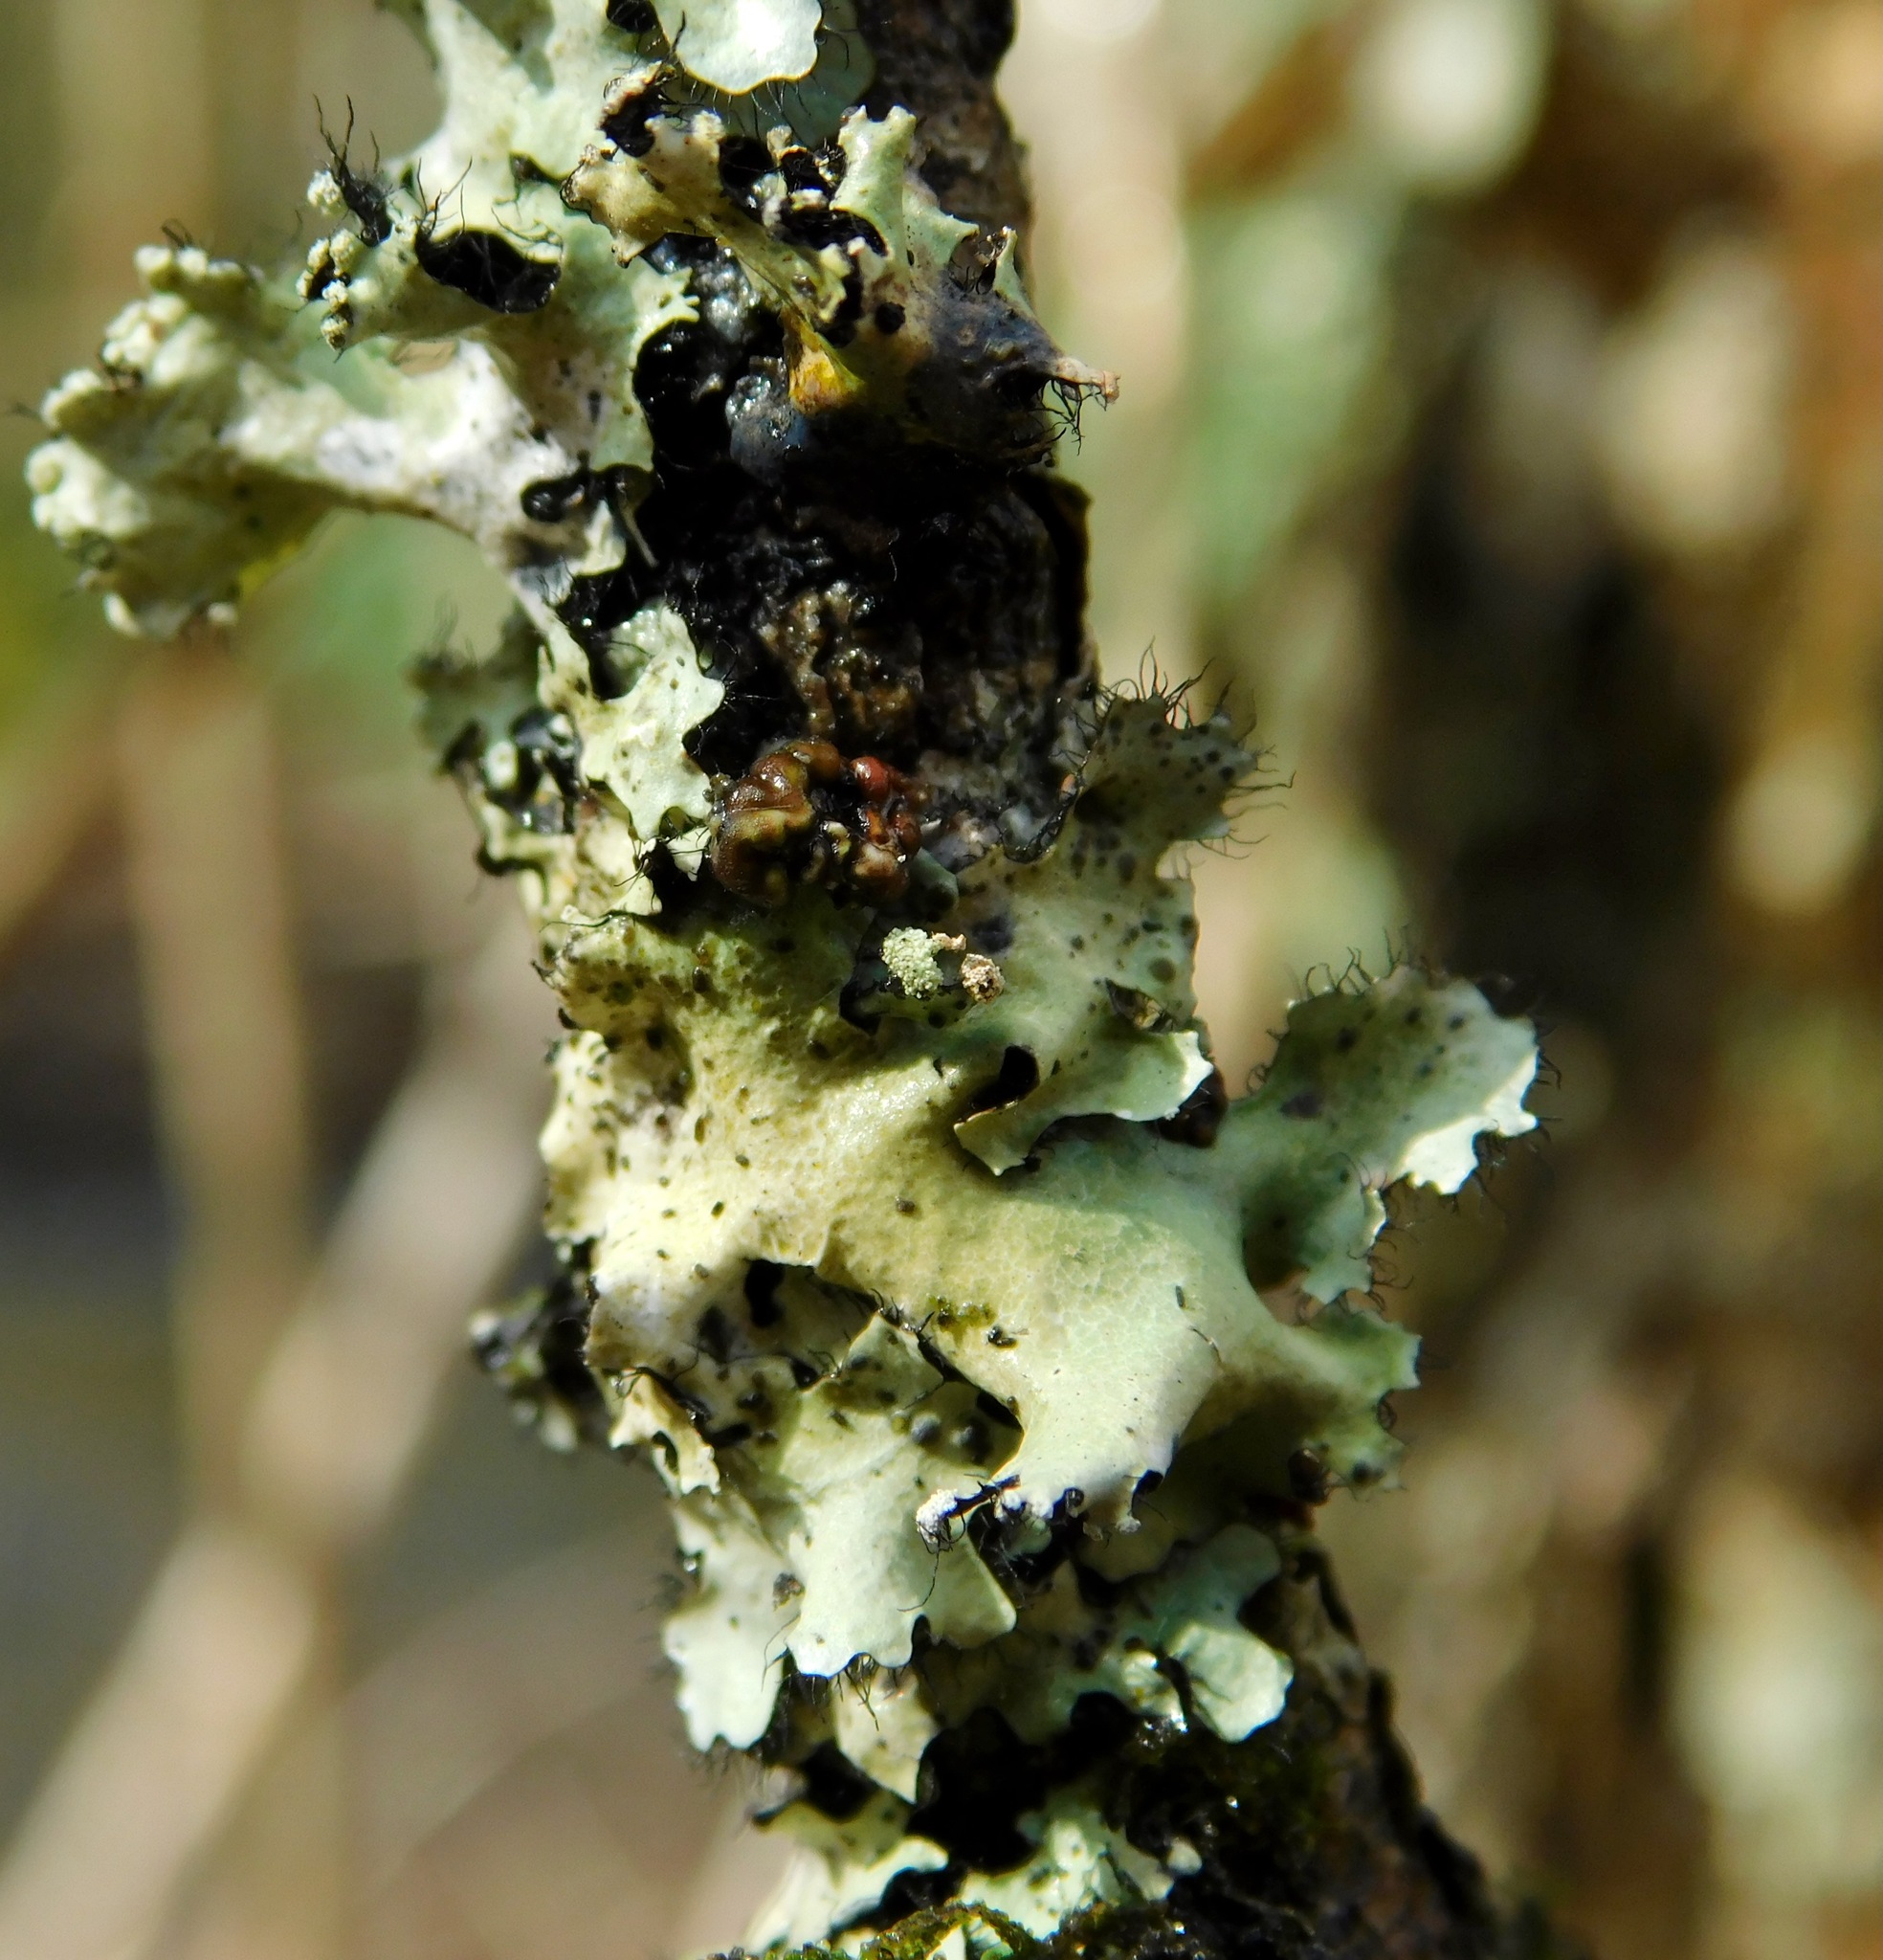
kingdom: Fungi
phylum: Basidiomycota
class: Tremellomycetes
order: Tremellales
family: Tremellaceae
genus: Tremella
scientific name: Tremella parmeliarum
